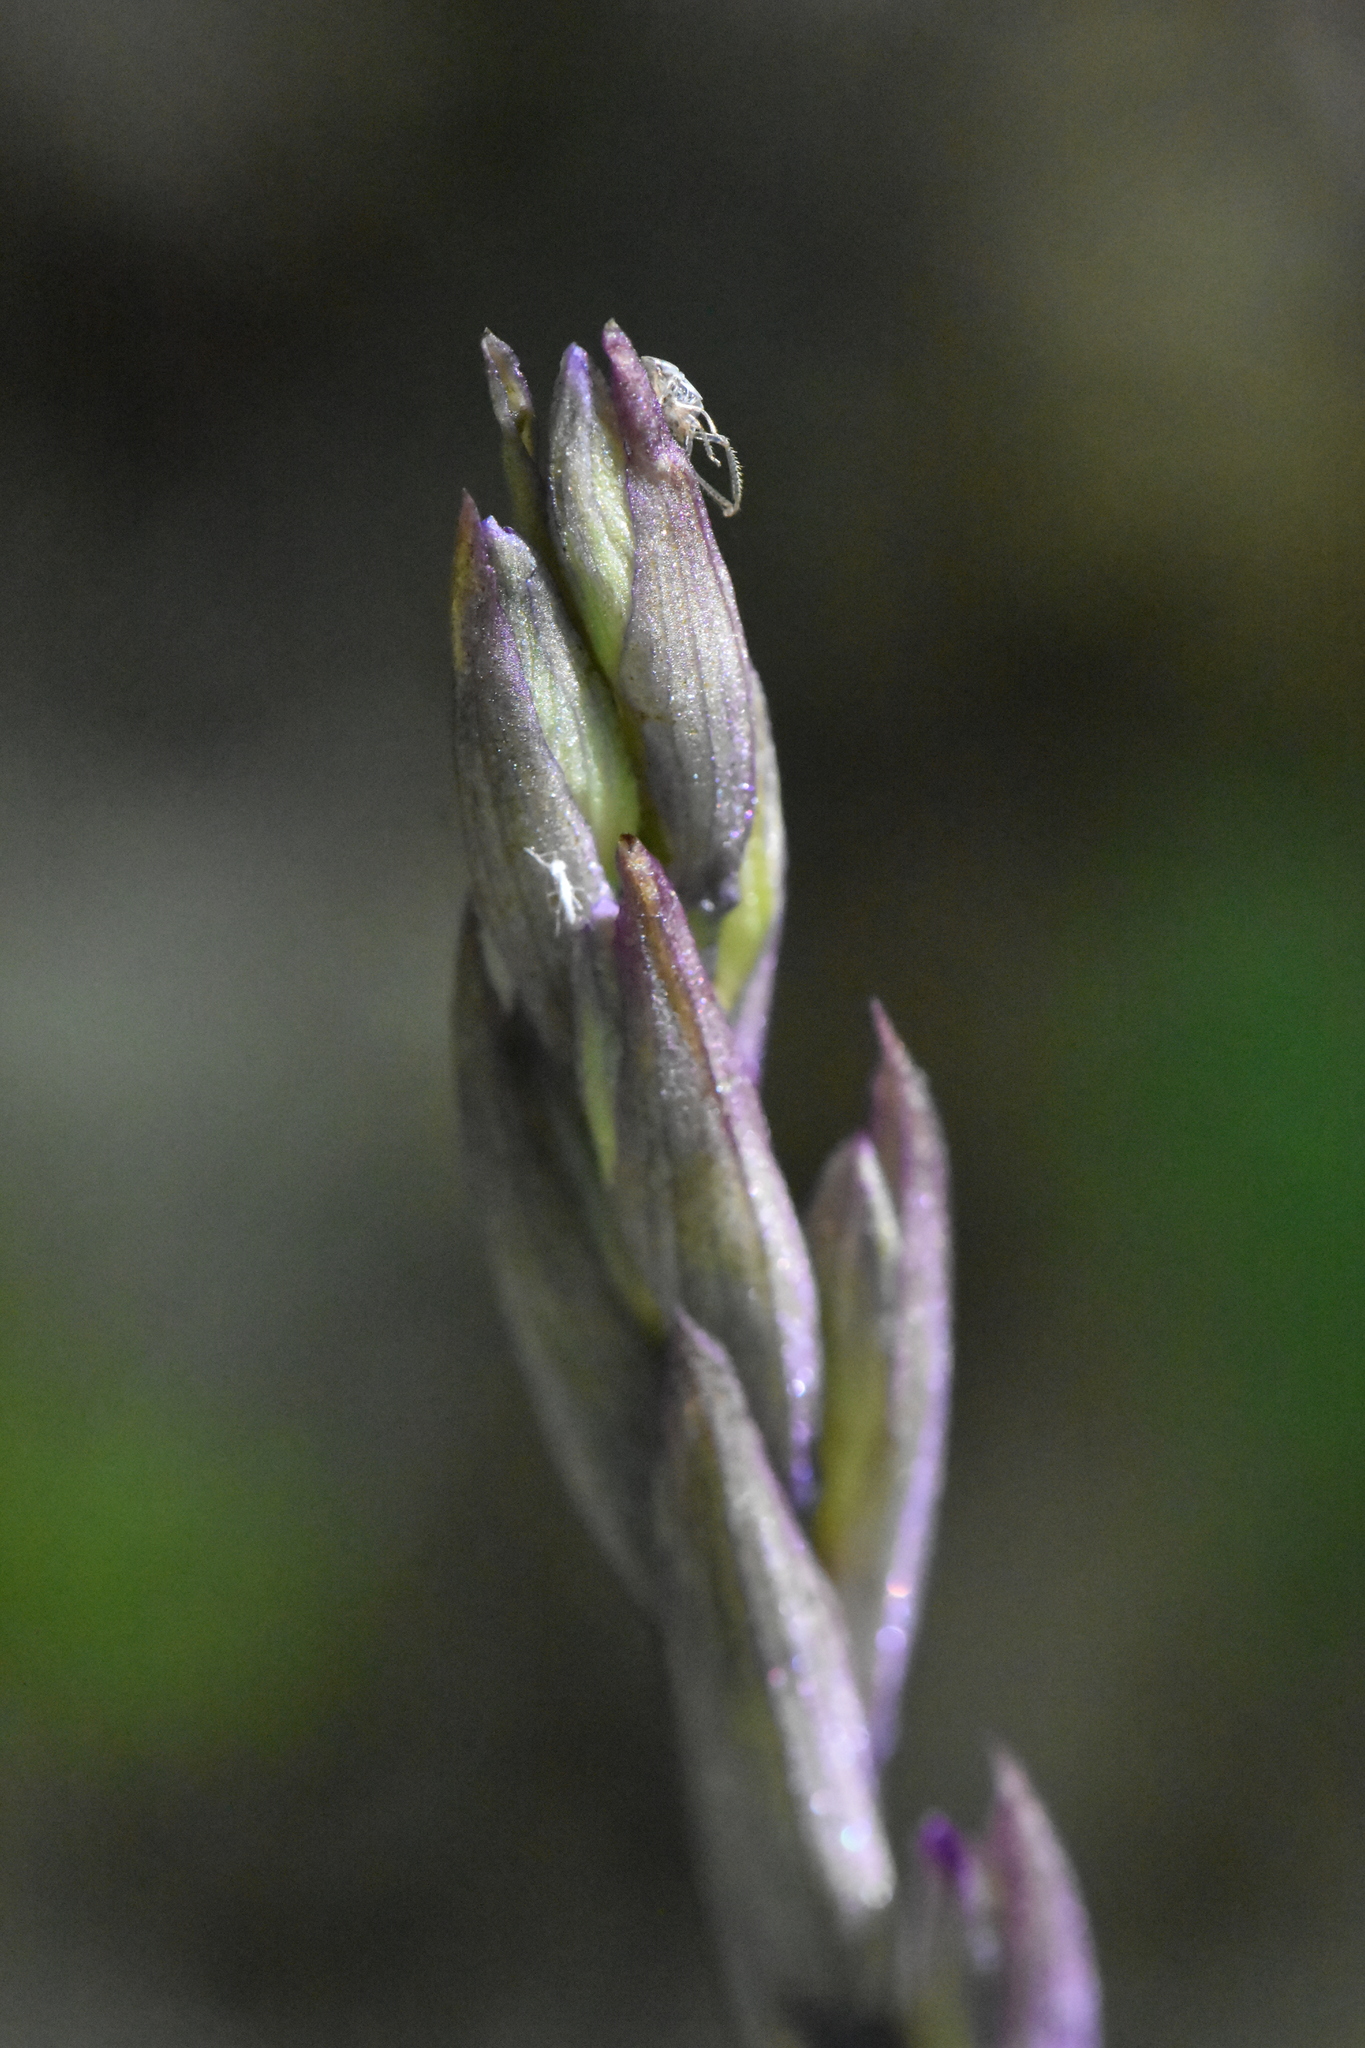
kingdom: Plantae
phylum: Tracheophyta
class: Liliopsida
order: Asparagales
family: Orchidaceae
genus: Limodorum
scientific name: Limodorum abortivum
